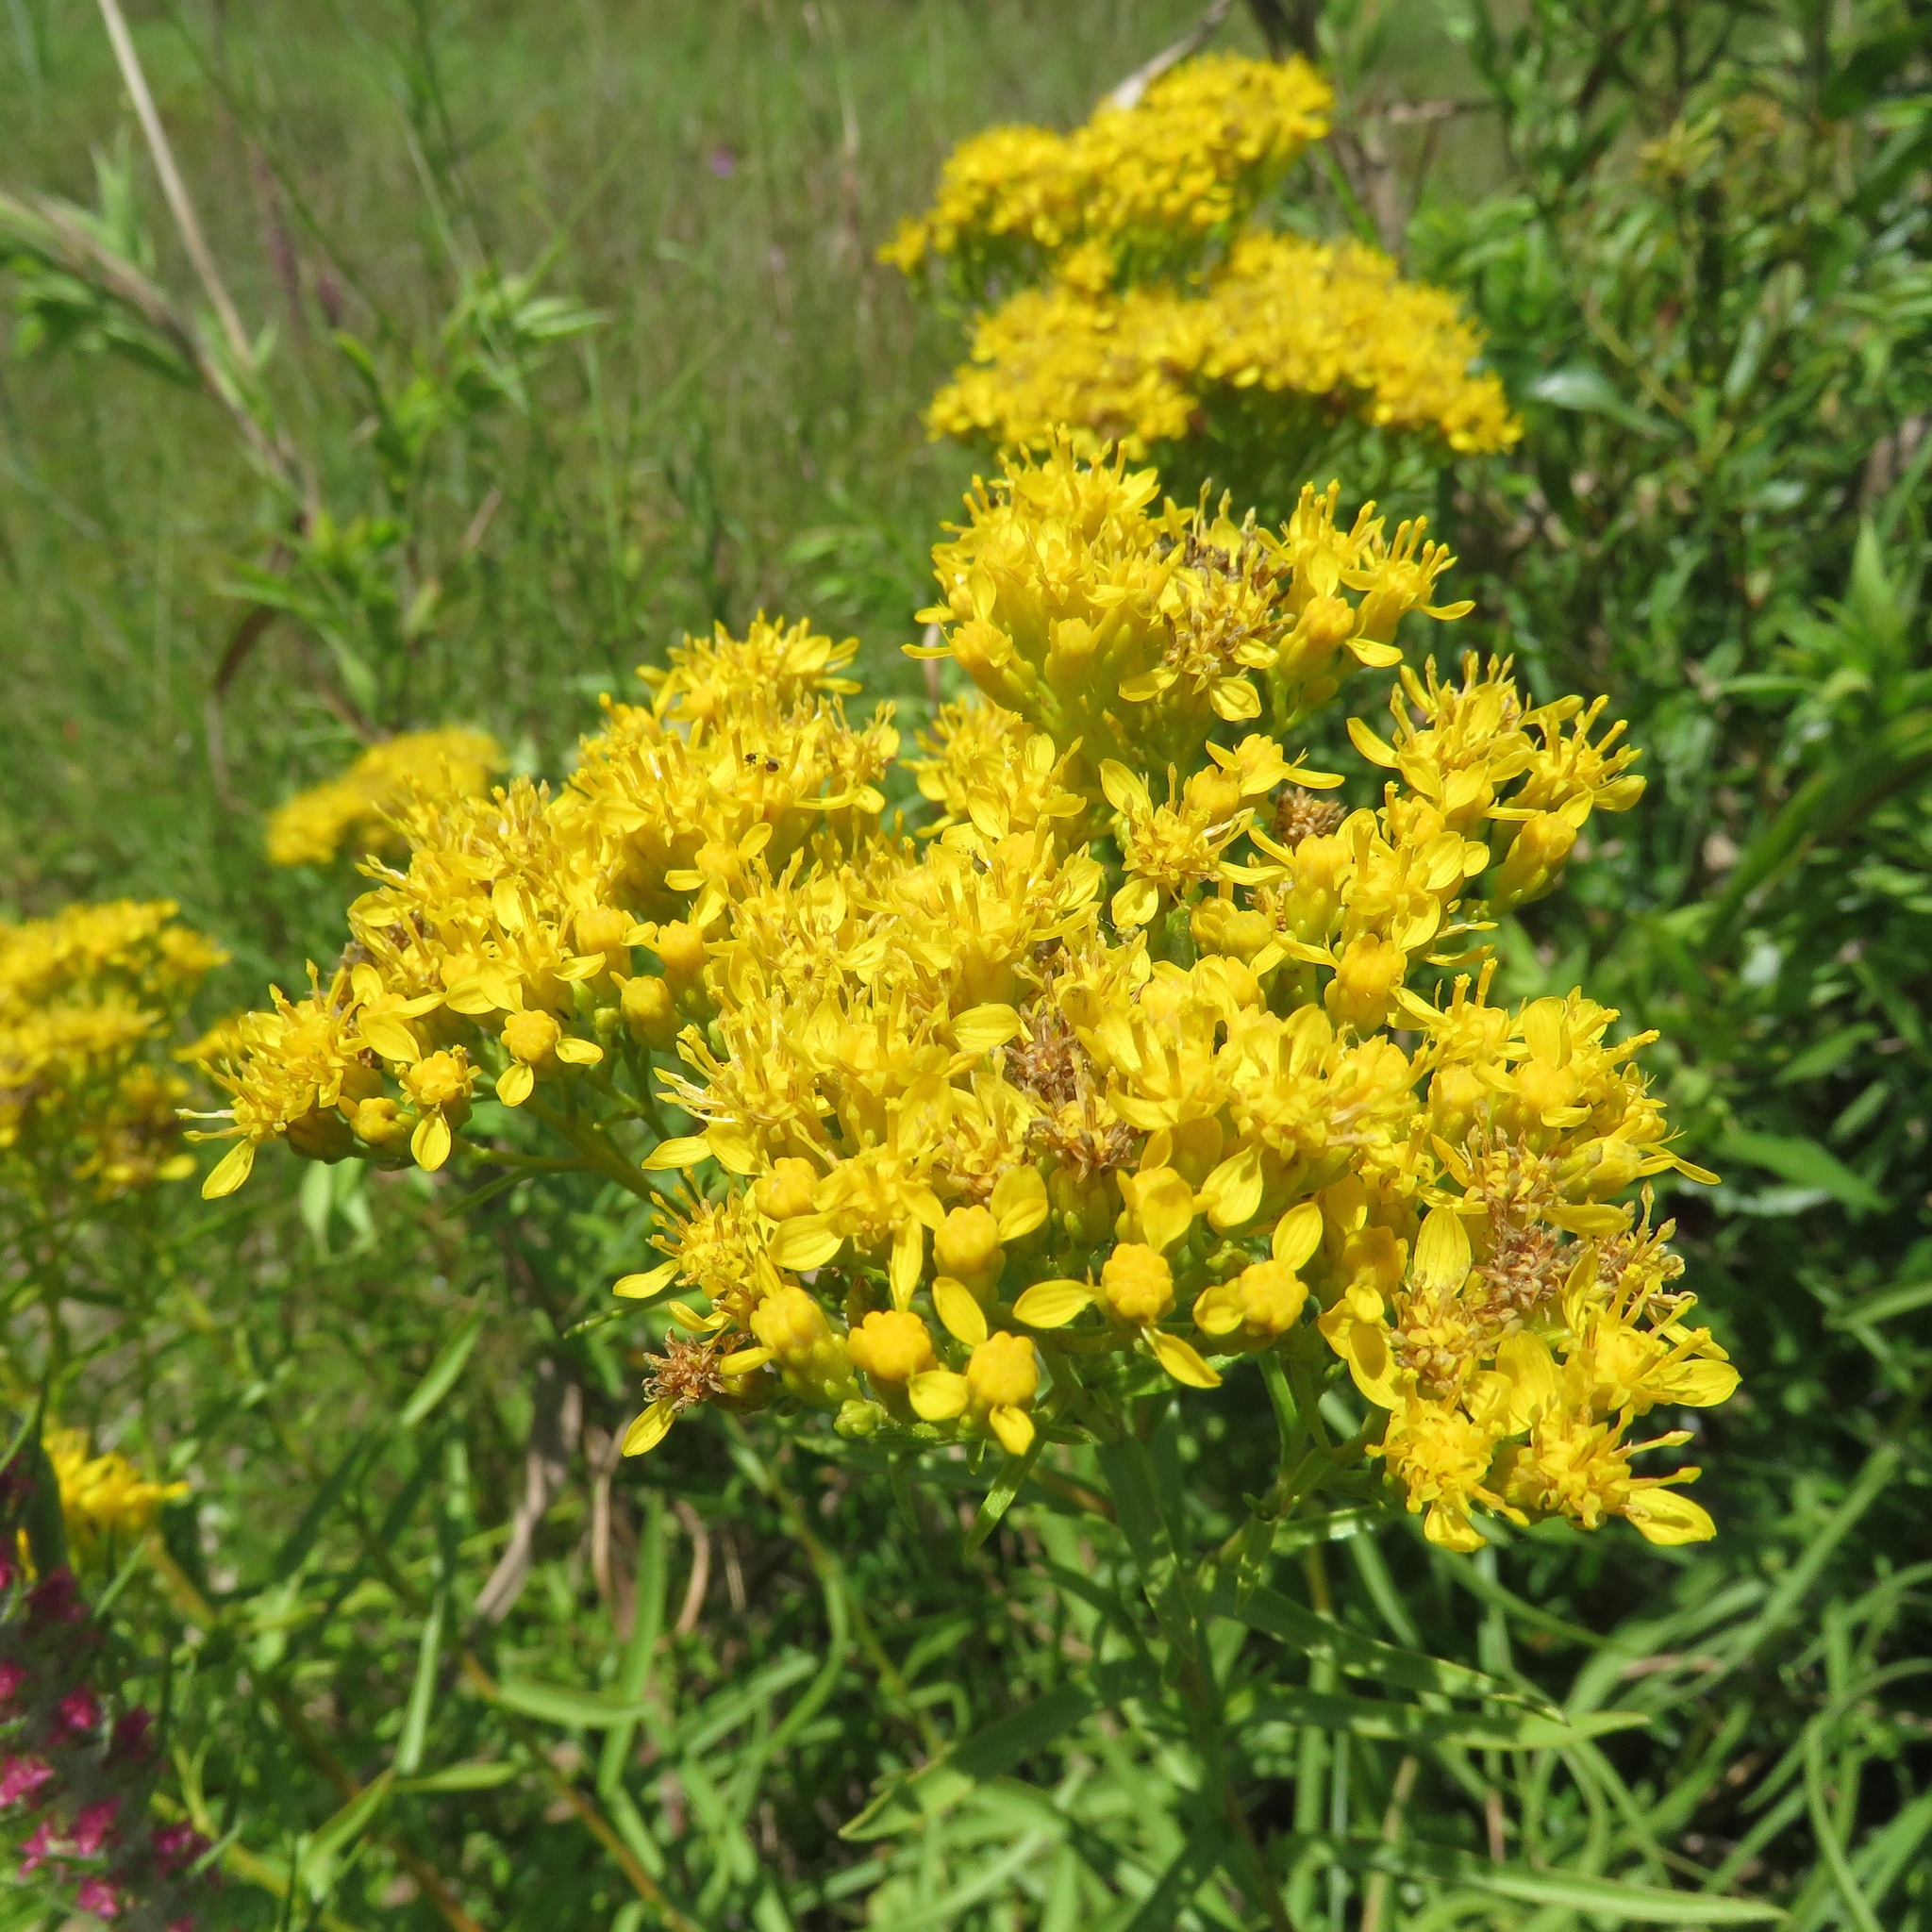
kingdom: Plantae
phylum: Tracheophyta
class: Magnoliopsida
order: Asterales
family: Asteraceae
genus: Solidago
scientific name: Solidago nitida
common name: Shiny goldenrod
